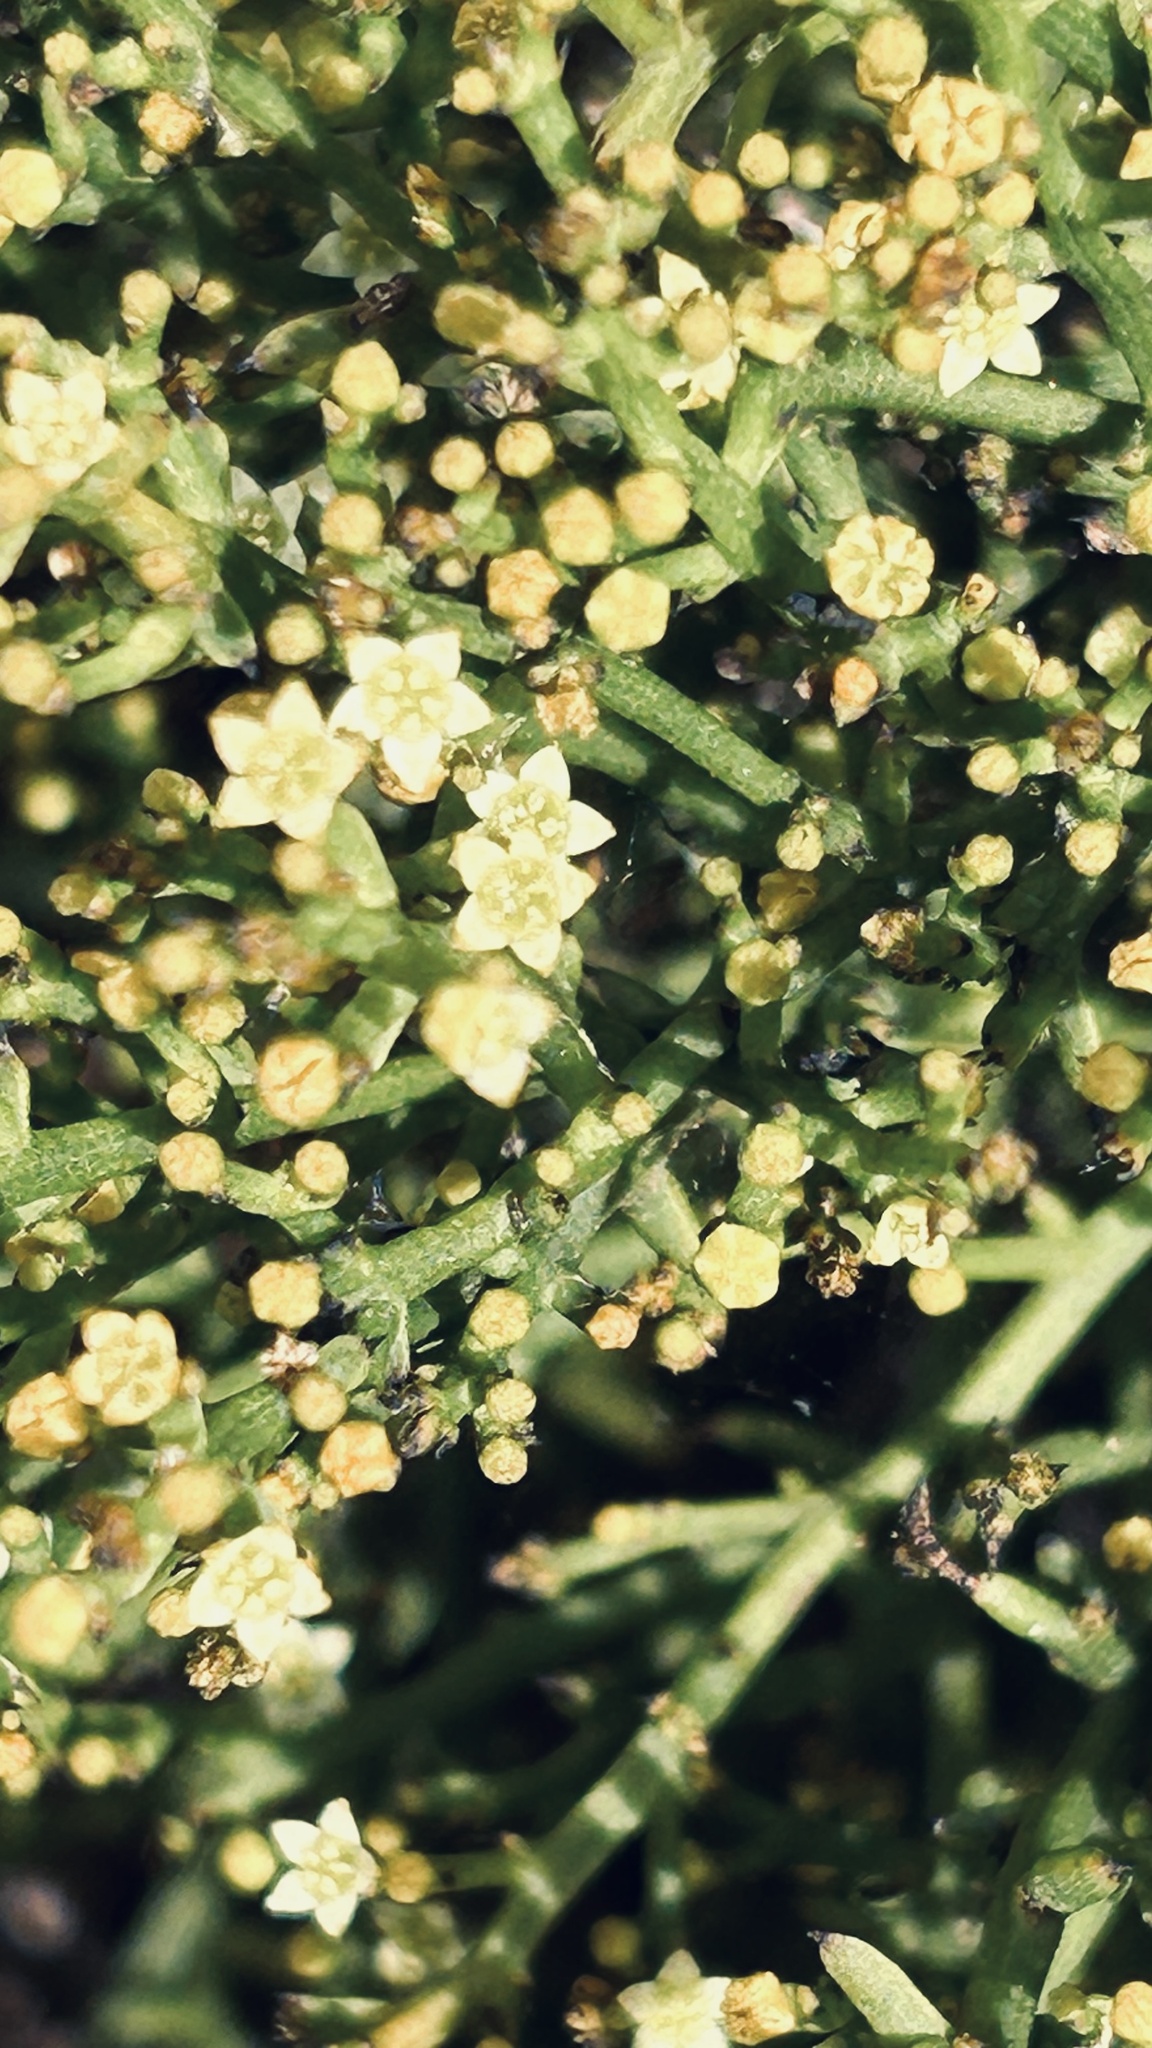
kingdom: Plantae
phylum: Tracheophyta
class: Magnoliopsida
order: Santalales
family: Thesiaceae
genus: Thesium
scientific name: Thesium galioides
